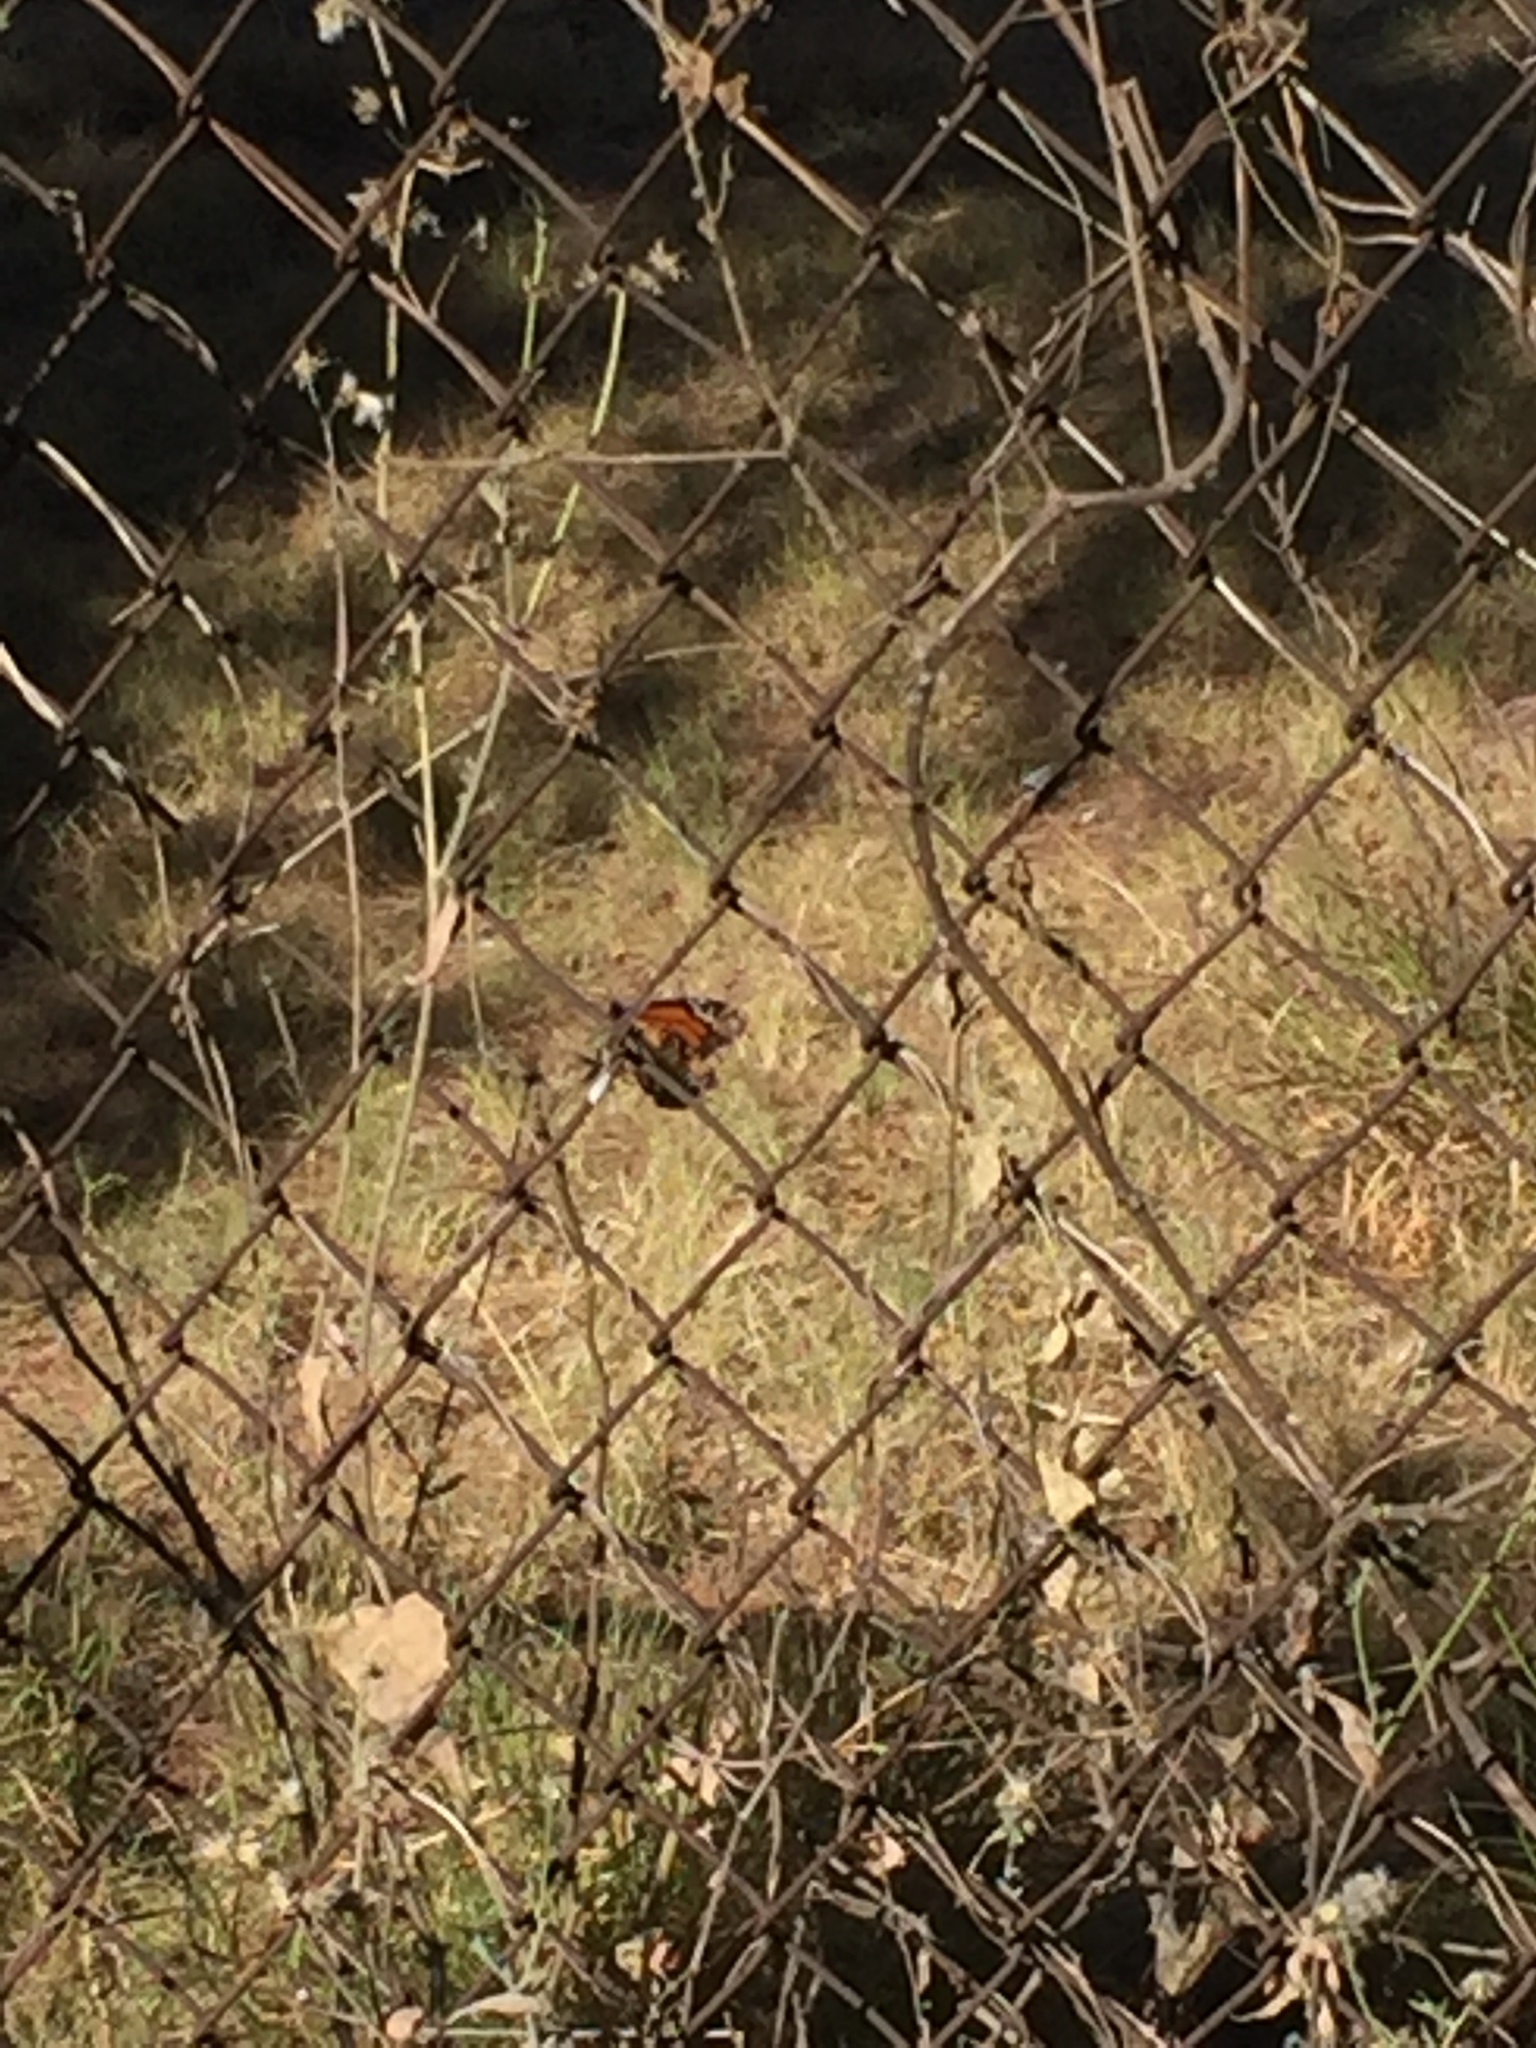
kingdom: Animalia
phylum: Arthropoda
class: Insecta
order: Lepidoptera
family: Nymphalidae
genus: Danaus
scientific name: Danaus plexippus
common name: Monarch
